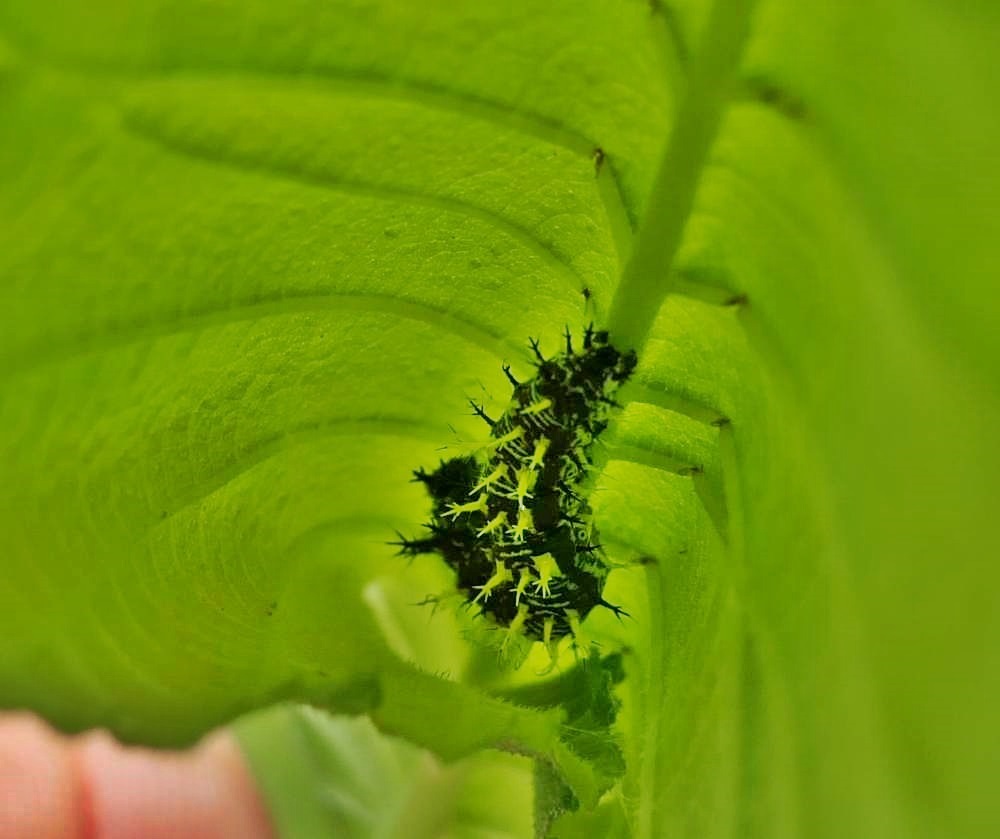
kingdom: Animalia
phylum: Arthropoda
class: Insecta
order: Lepidoptera
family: Nymphalidae
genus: Polygonia
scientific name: Polygonia comma
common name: Eastern comma
